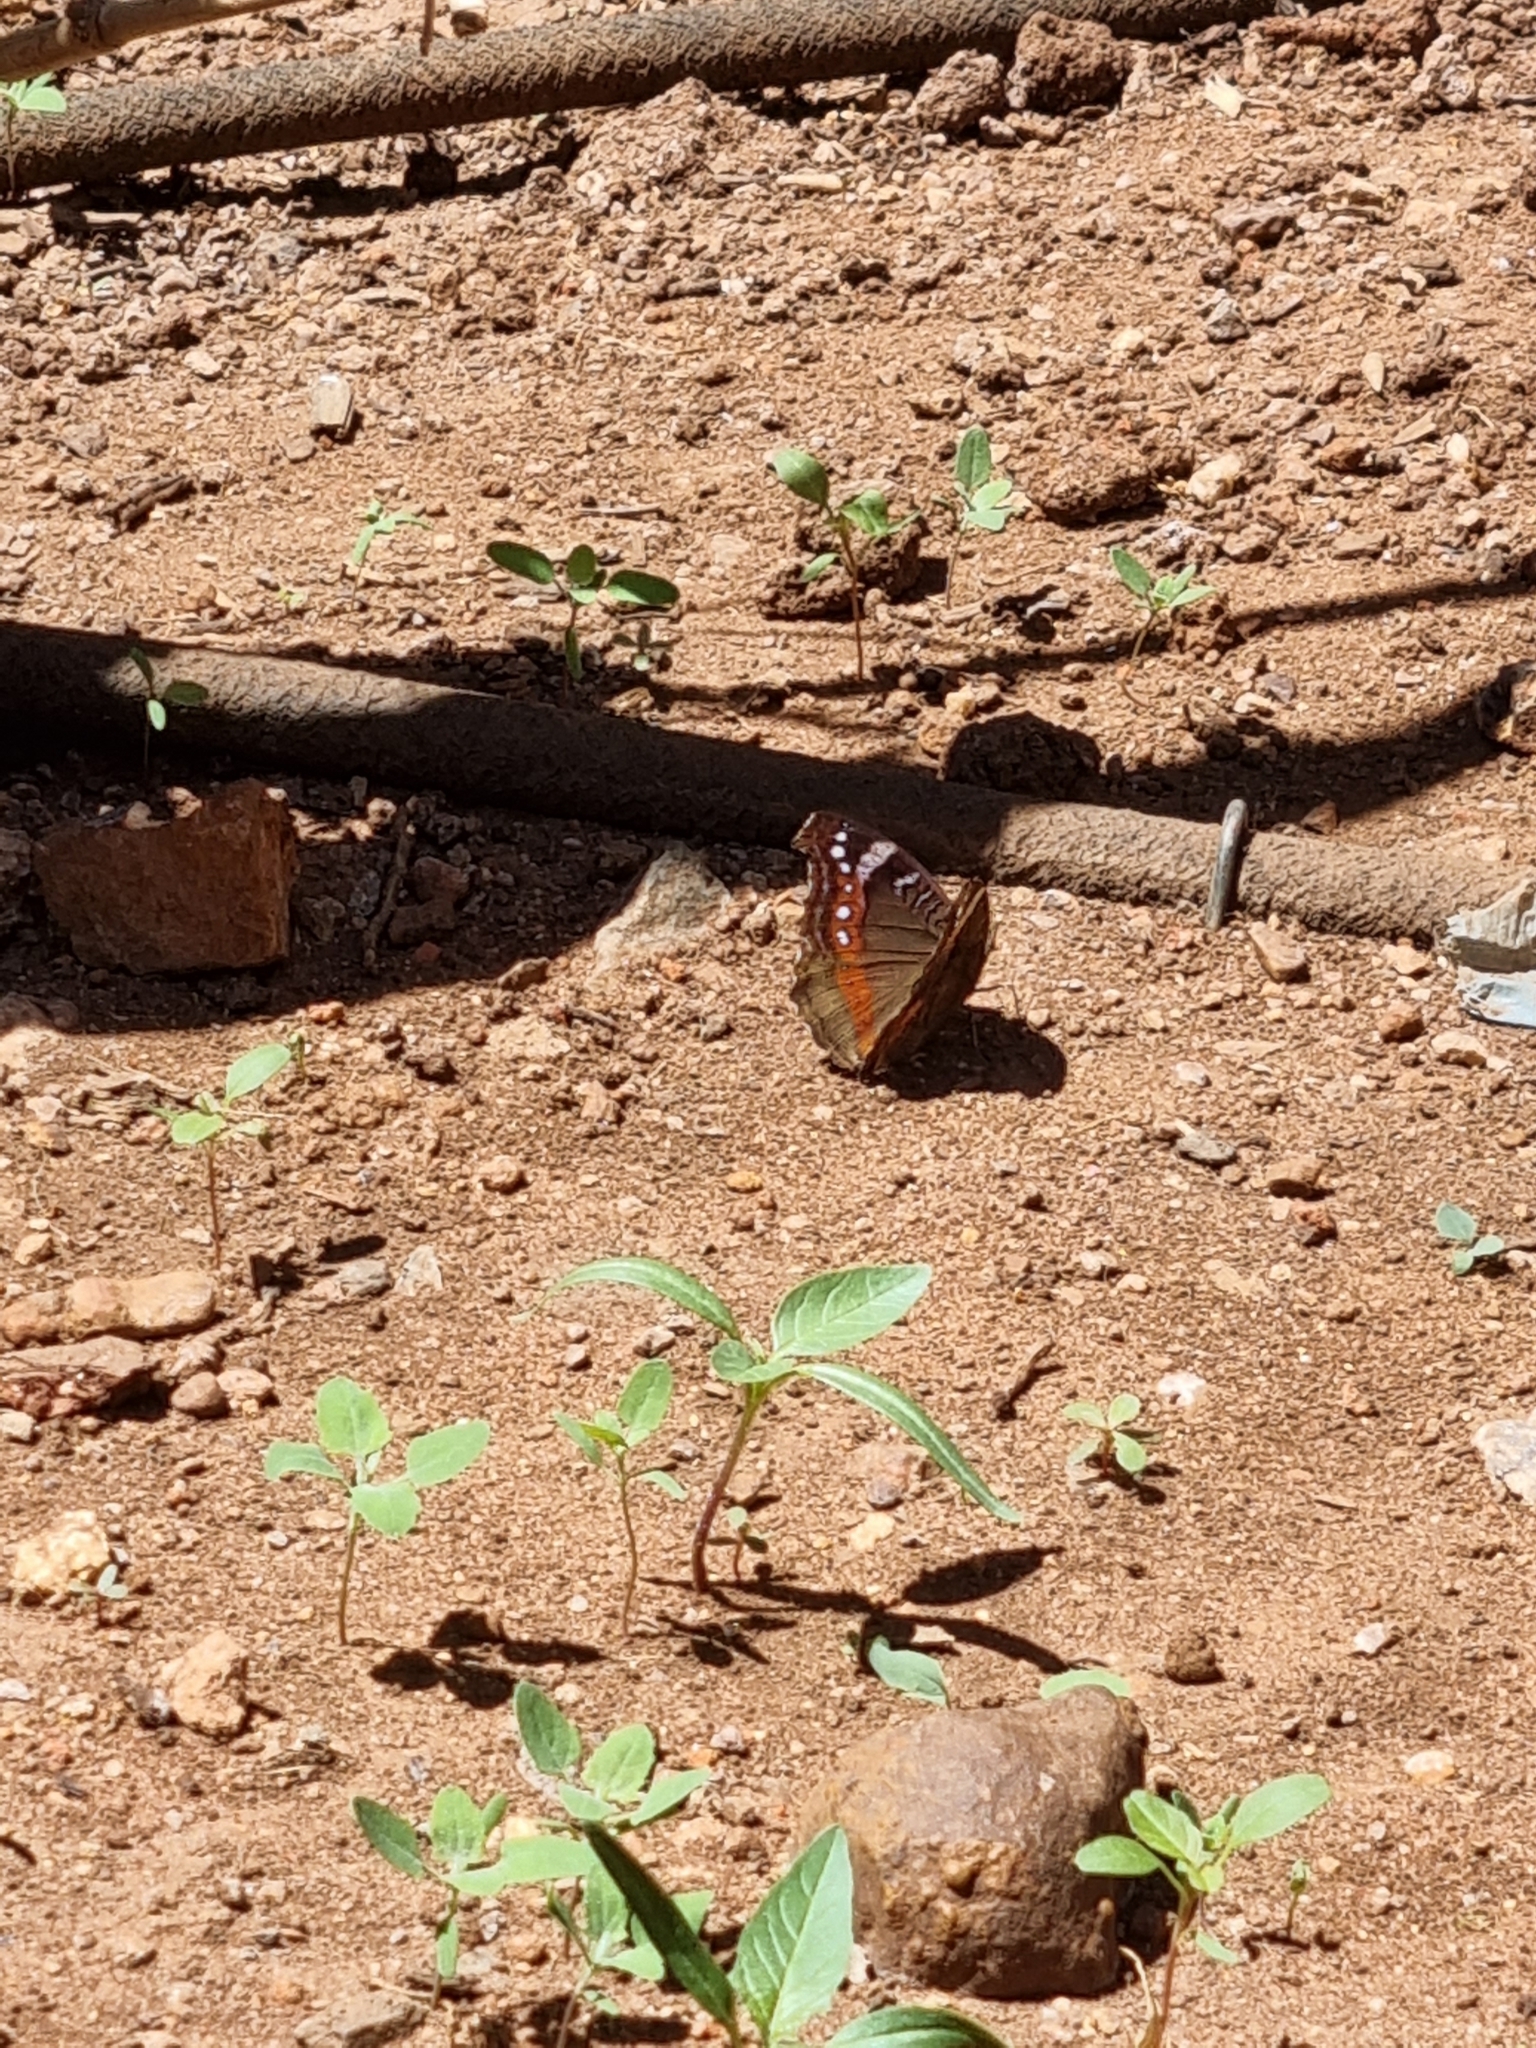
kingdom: Animalia
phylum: Arthropoda
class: Insecta
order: Lepidoptera
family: Nymphalidae
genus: Junonia
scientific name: Junonia archesia
